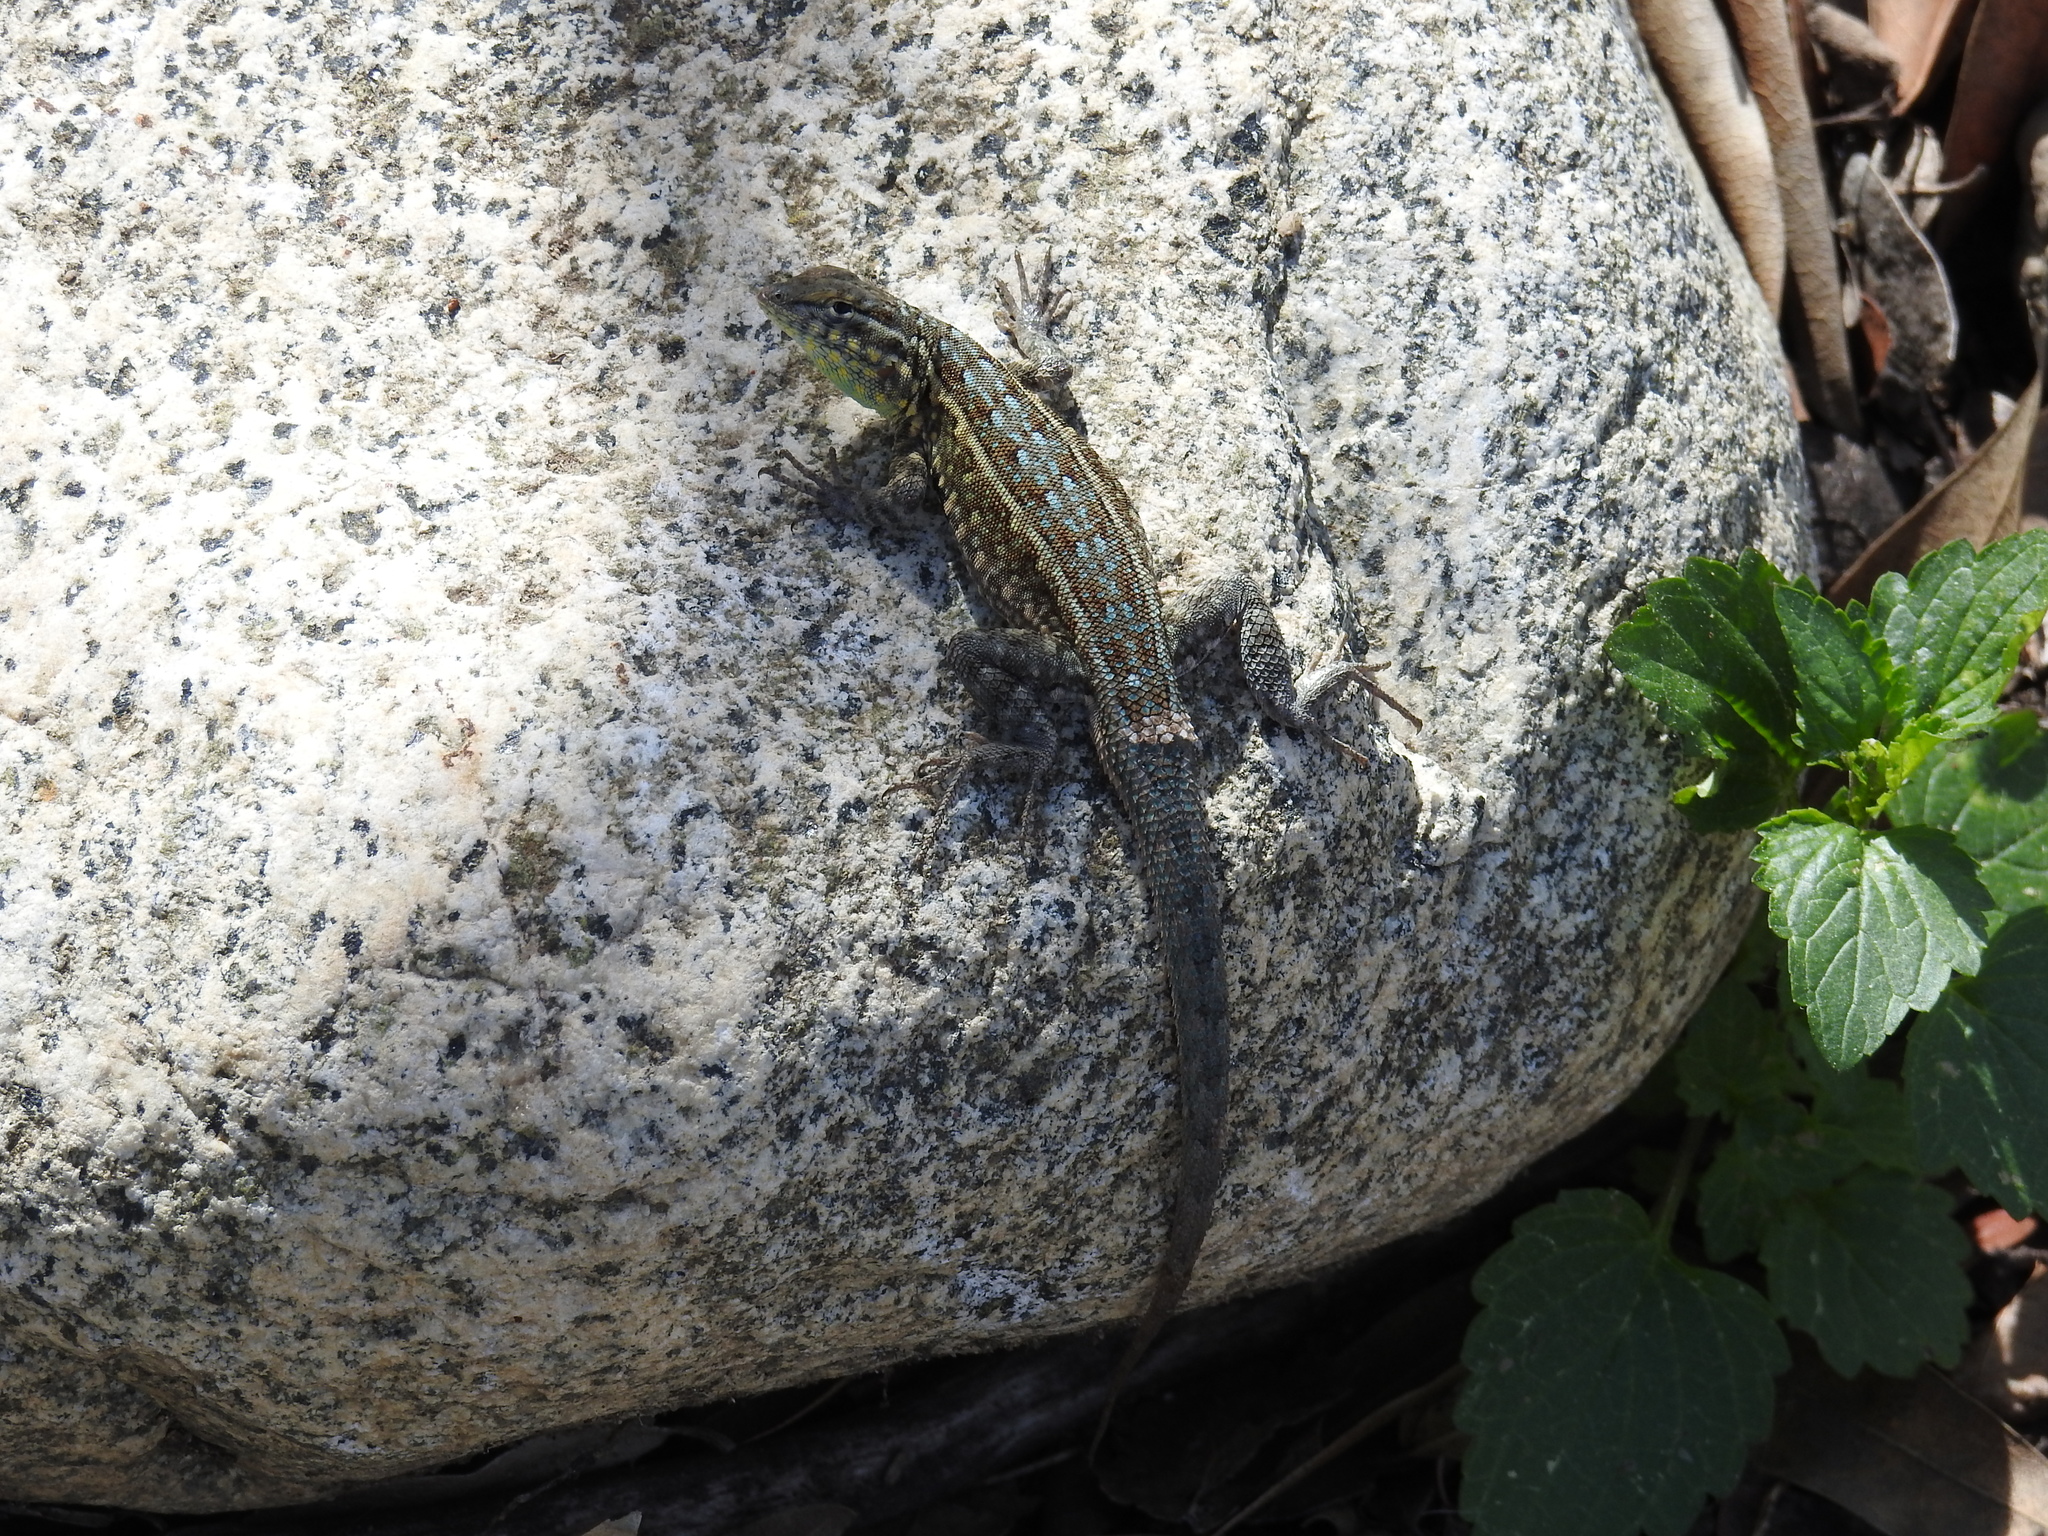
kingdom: Animalia
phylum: Chordata
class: Squamata
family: Phrynosomatidae
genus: Uta
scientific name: Uta stansburiana
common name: Side-blotched lizard
